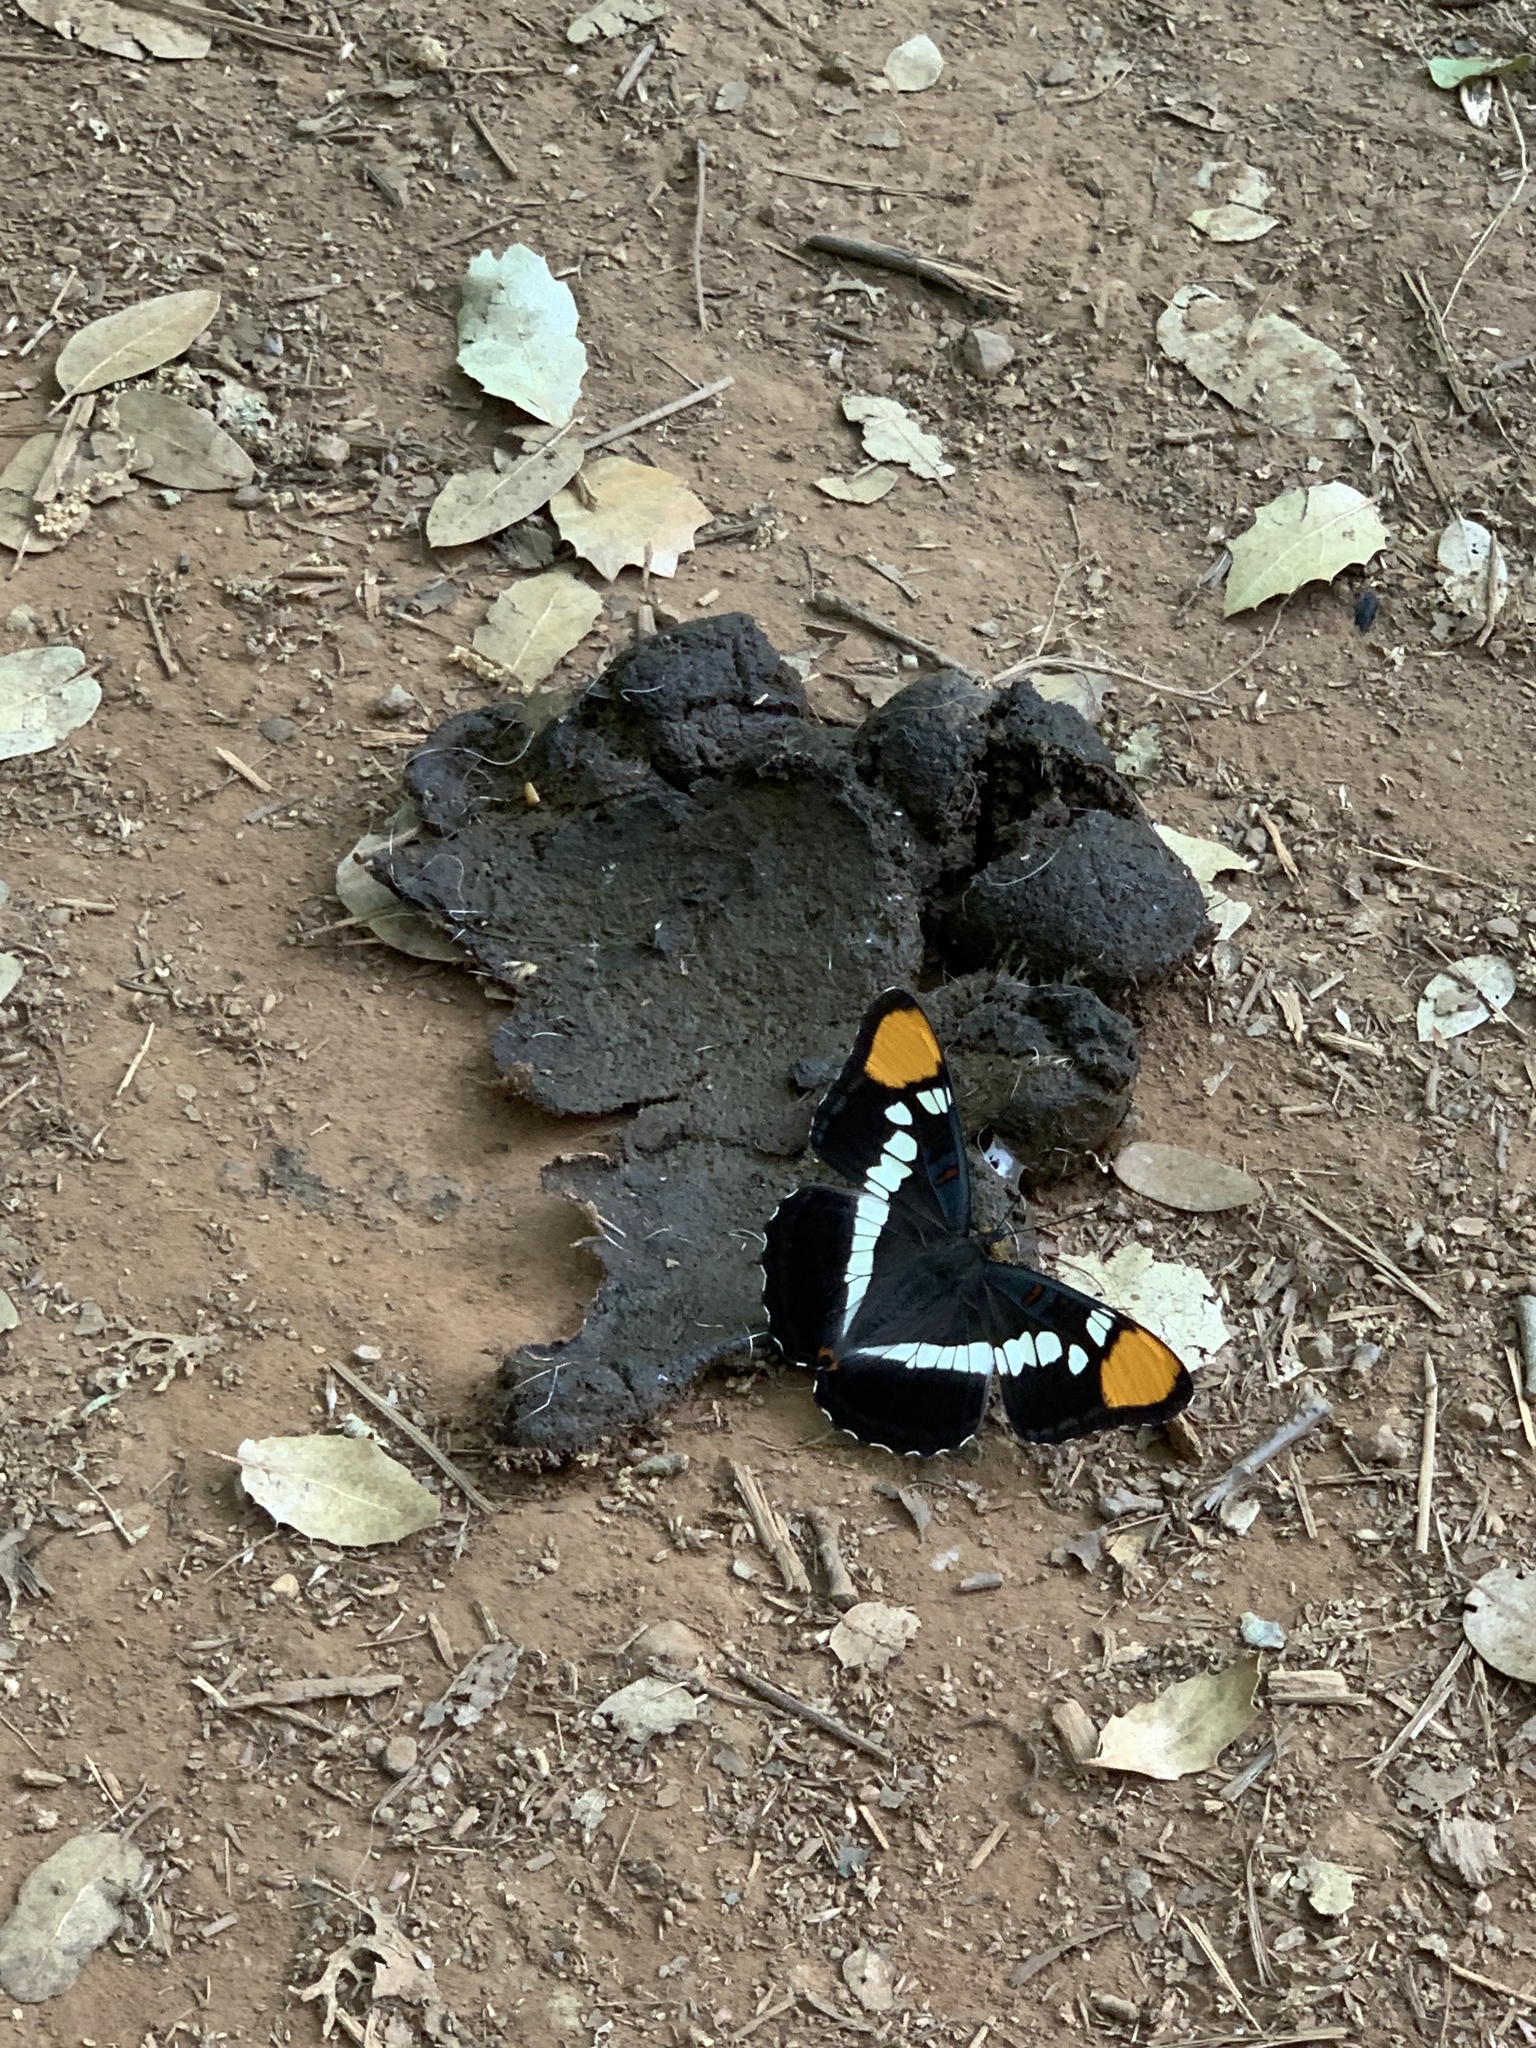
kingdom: Animalia
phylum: Arthropoda
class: Insecta
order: Lepidoptera
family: Nymphalidae
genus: Limenitis
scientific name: Limenitis bredowii
